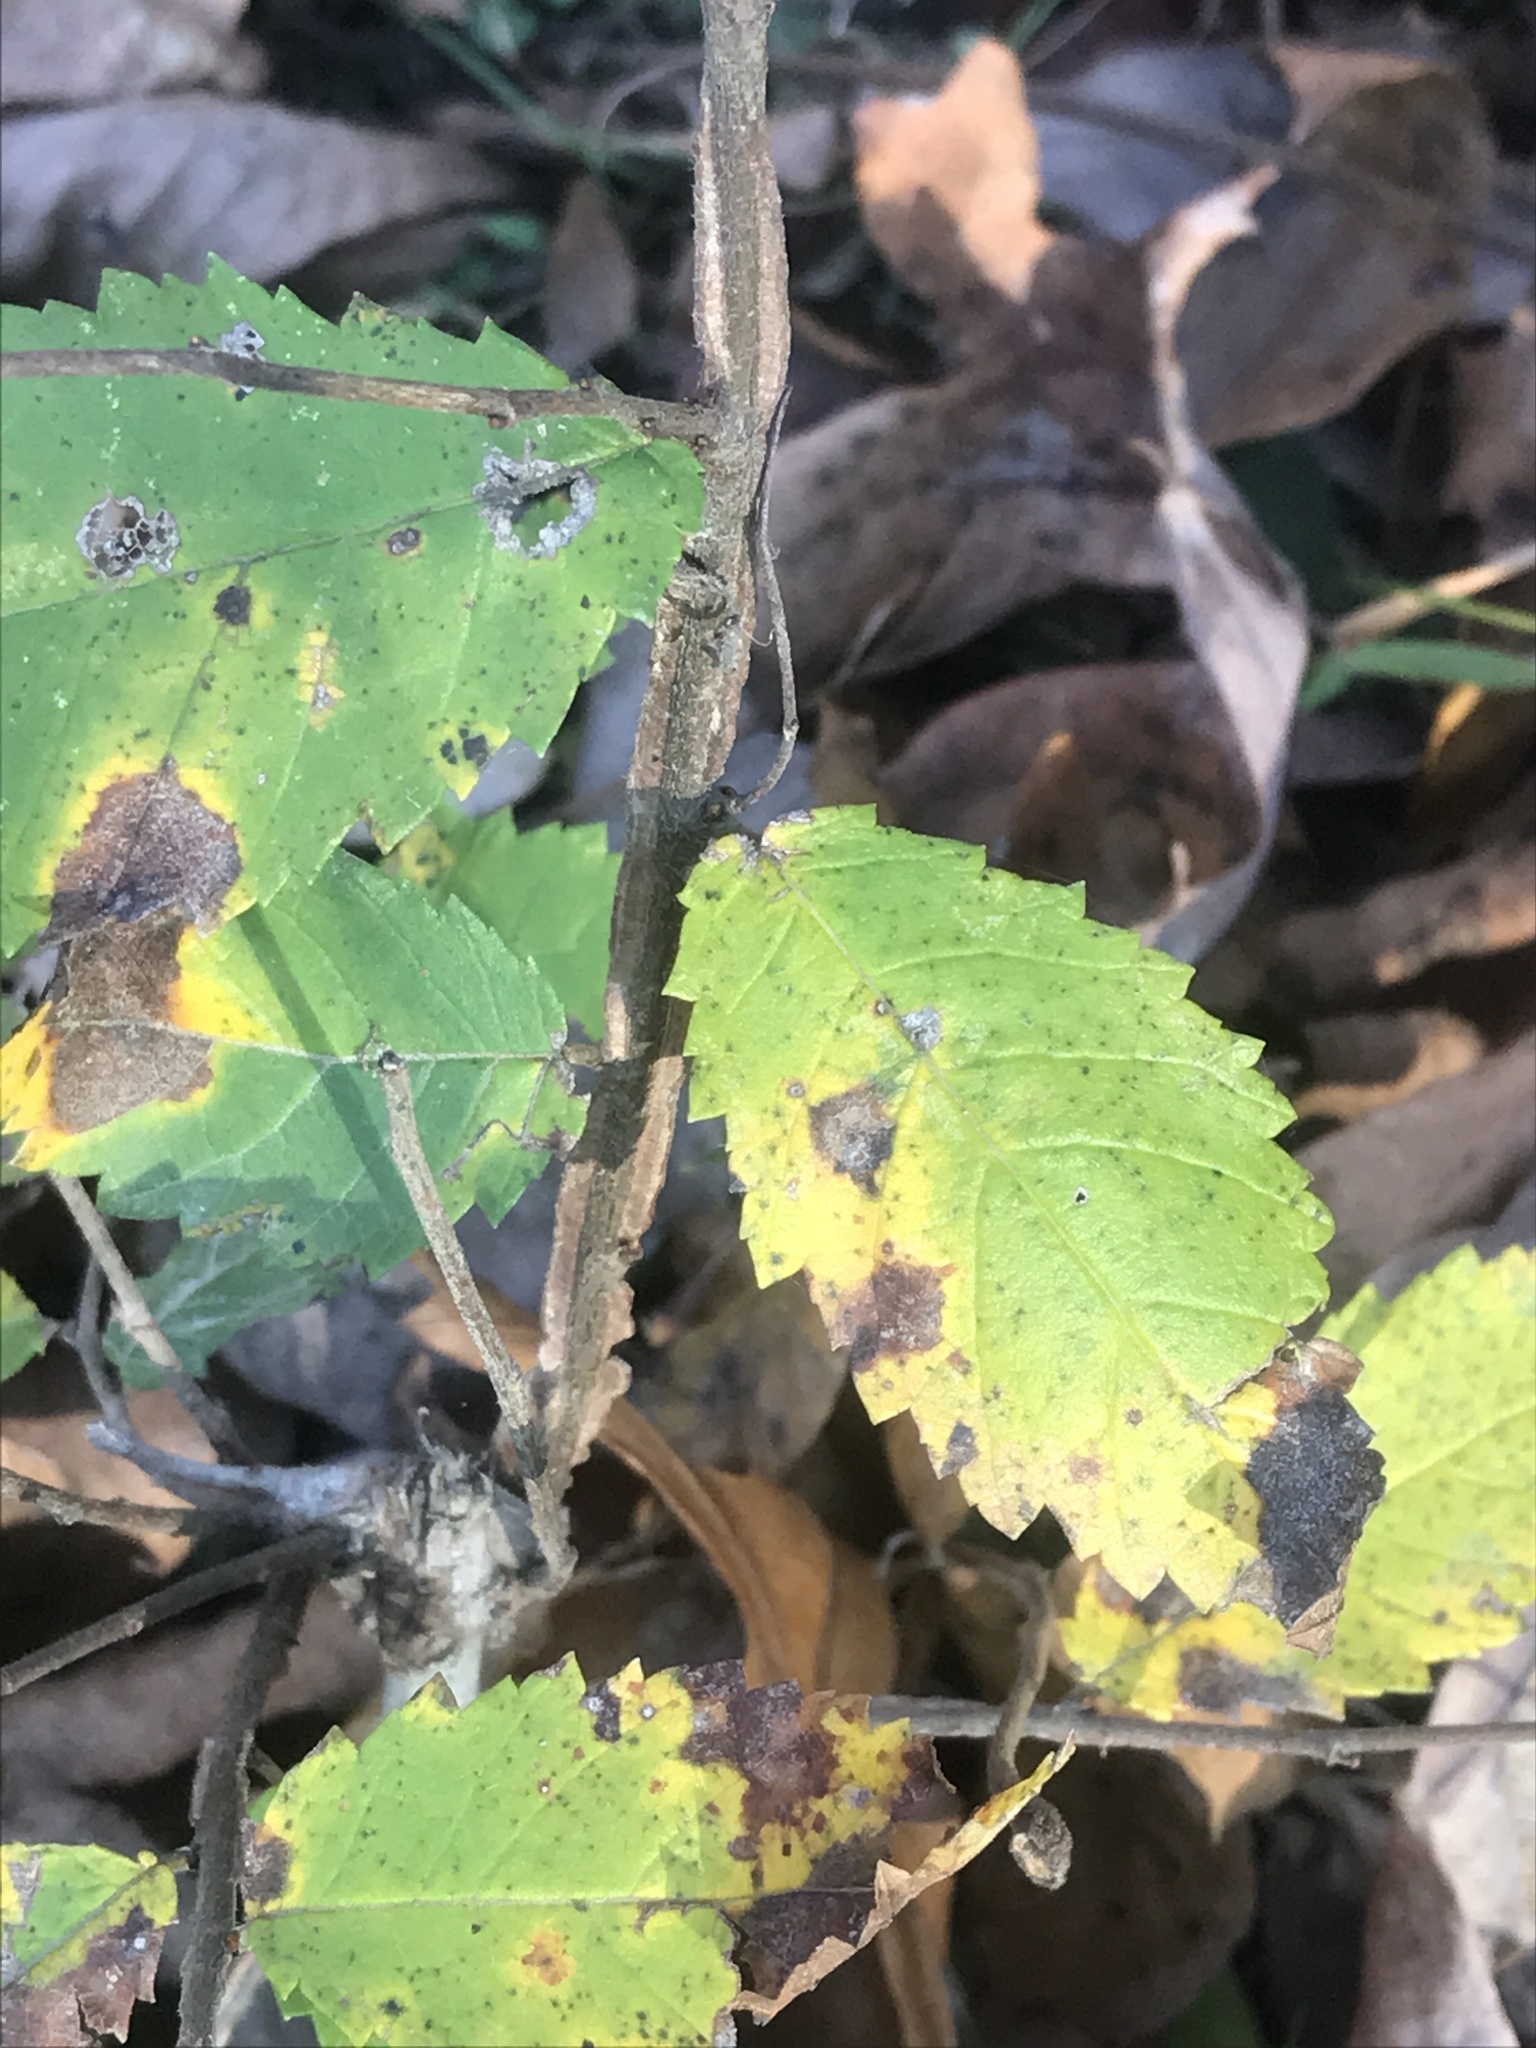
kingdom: Plantae
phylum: Tracheophyta
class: Magnoliopsida
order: Rosales
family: Ulmaceae
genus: Ulmus
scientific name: Ulmus alata
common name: Winged elm
